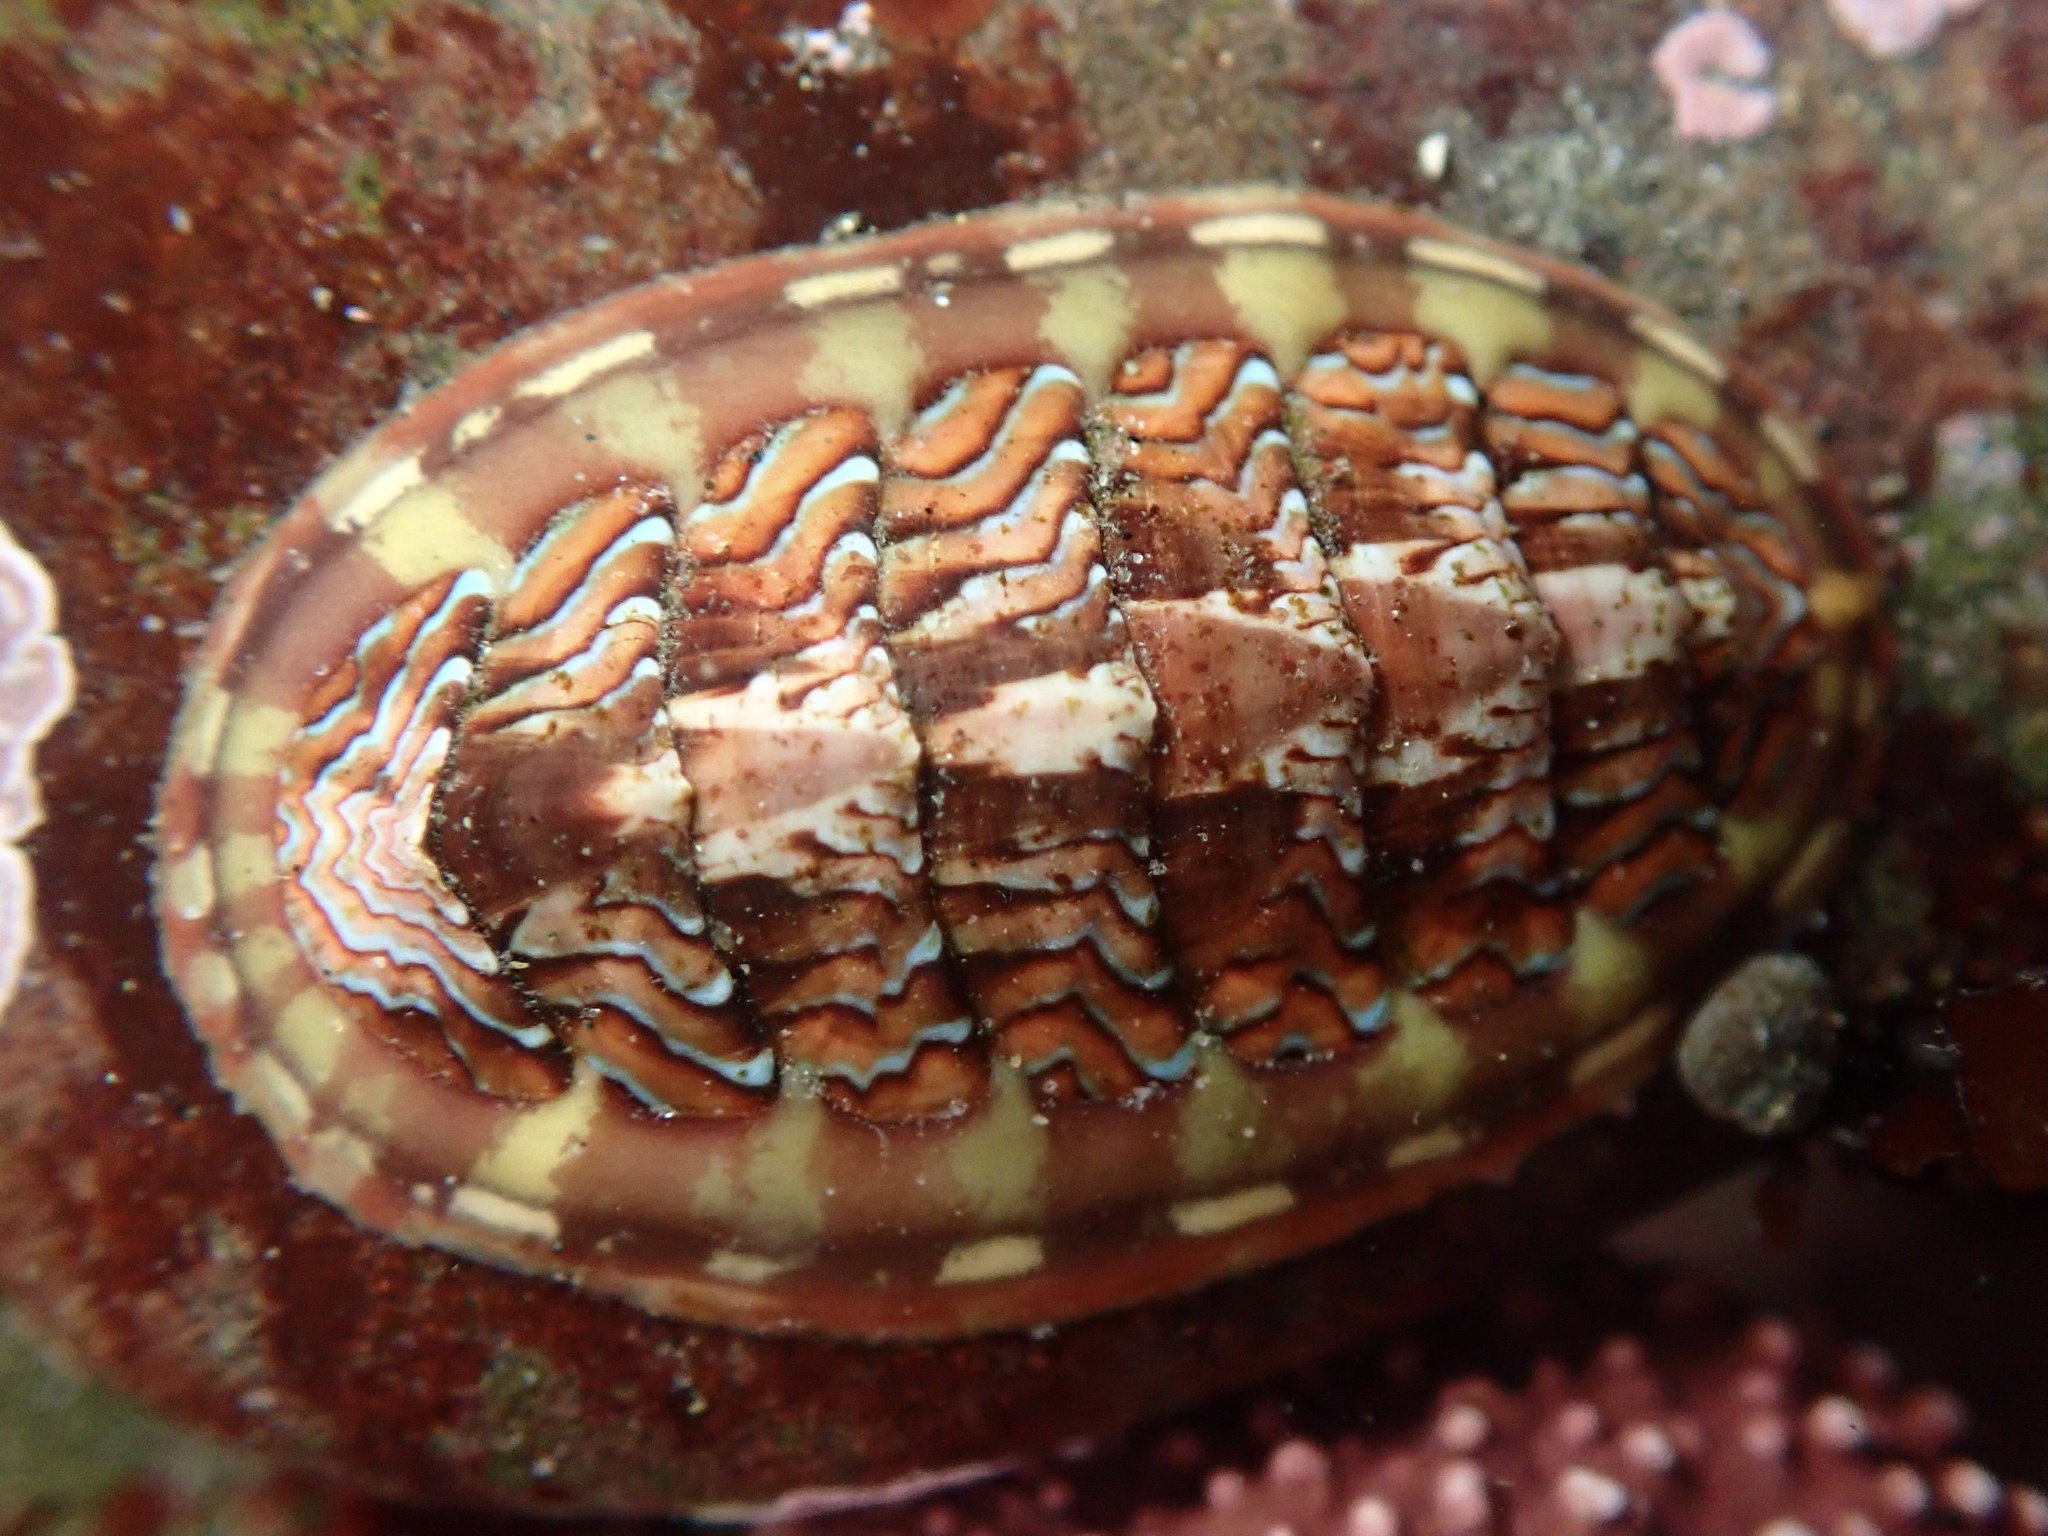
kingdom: Animalia
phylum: Mollusca
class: Polyplacophora
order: Chitonida
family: Tonicellidae
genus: Tonicella
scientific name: Tonicella lokii
